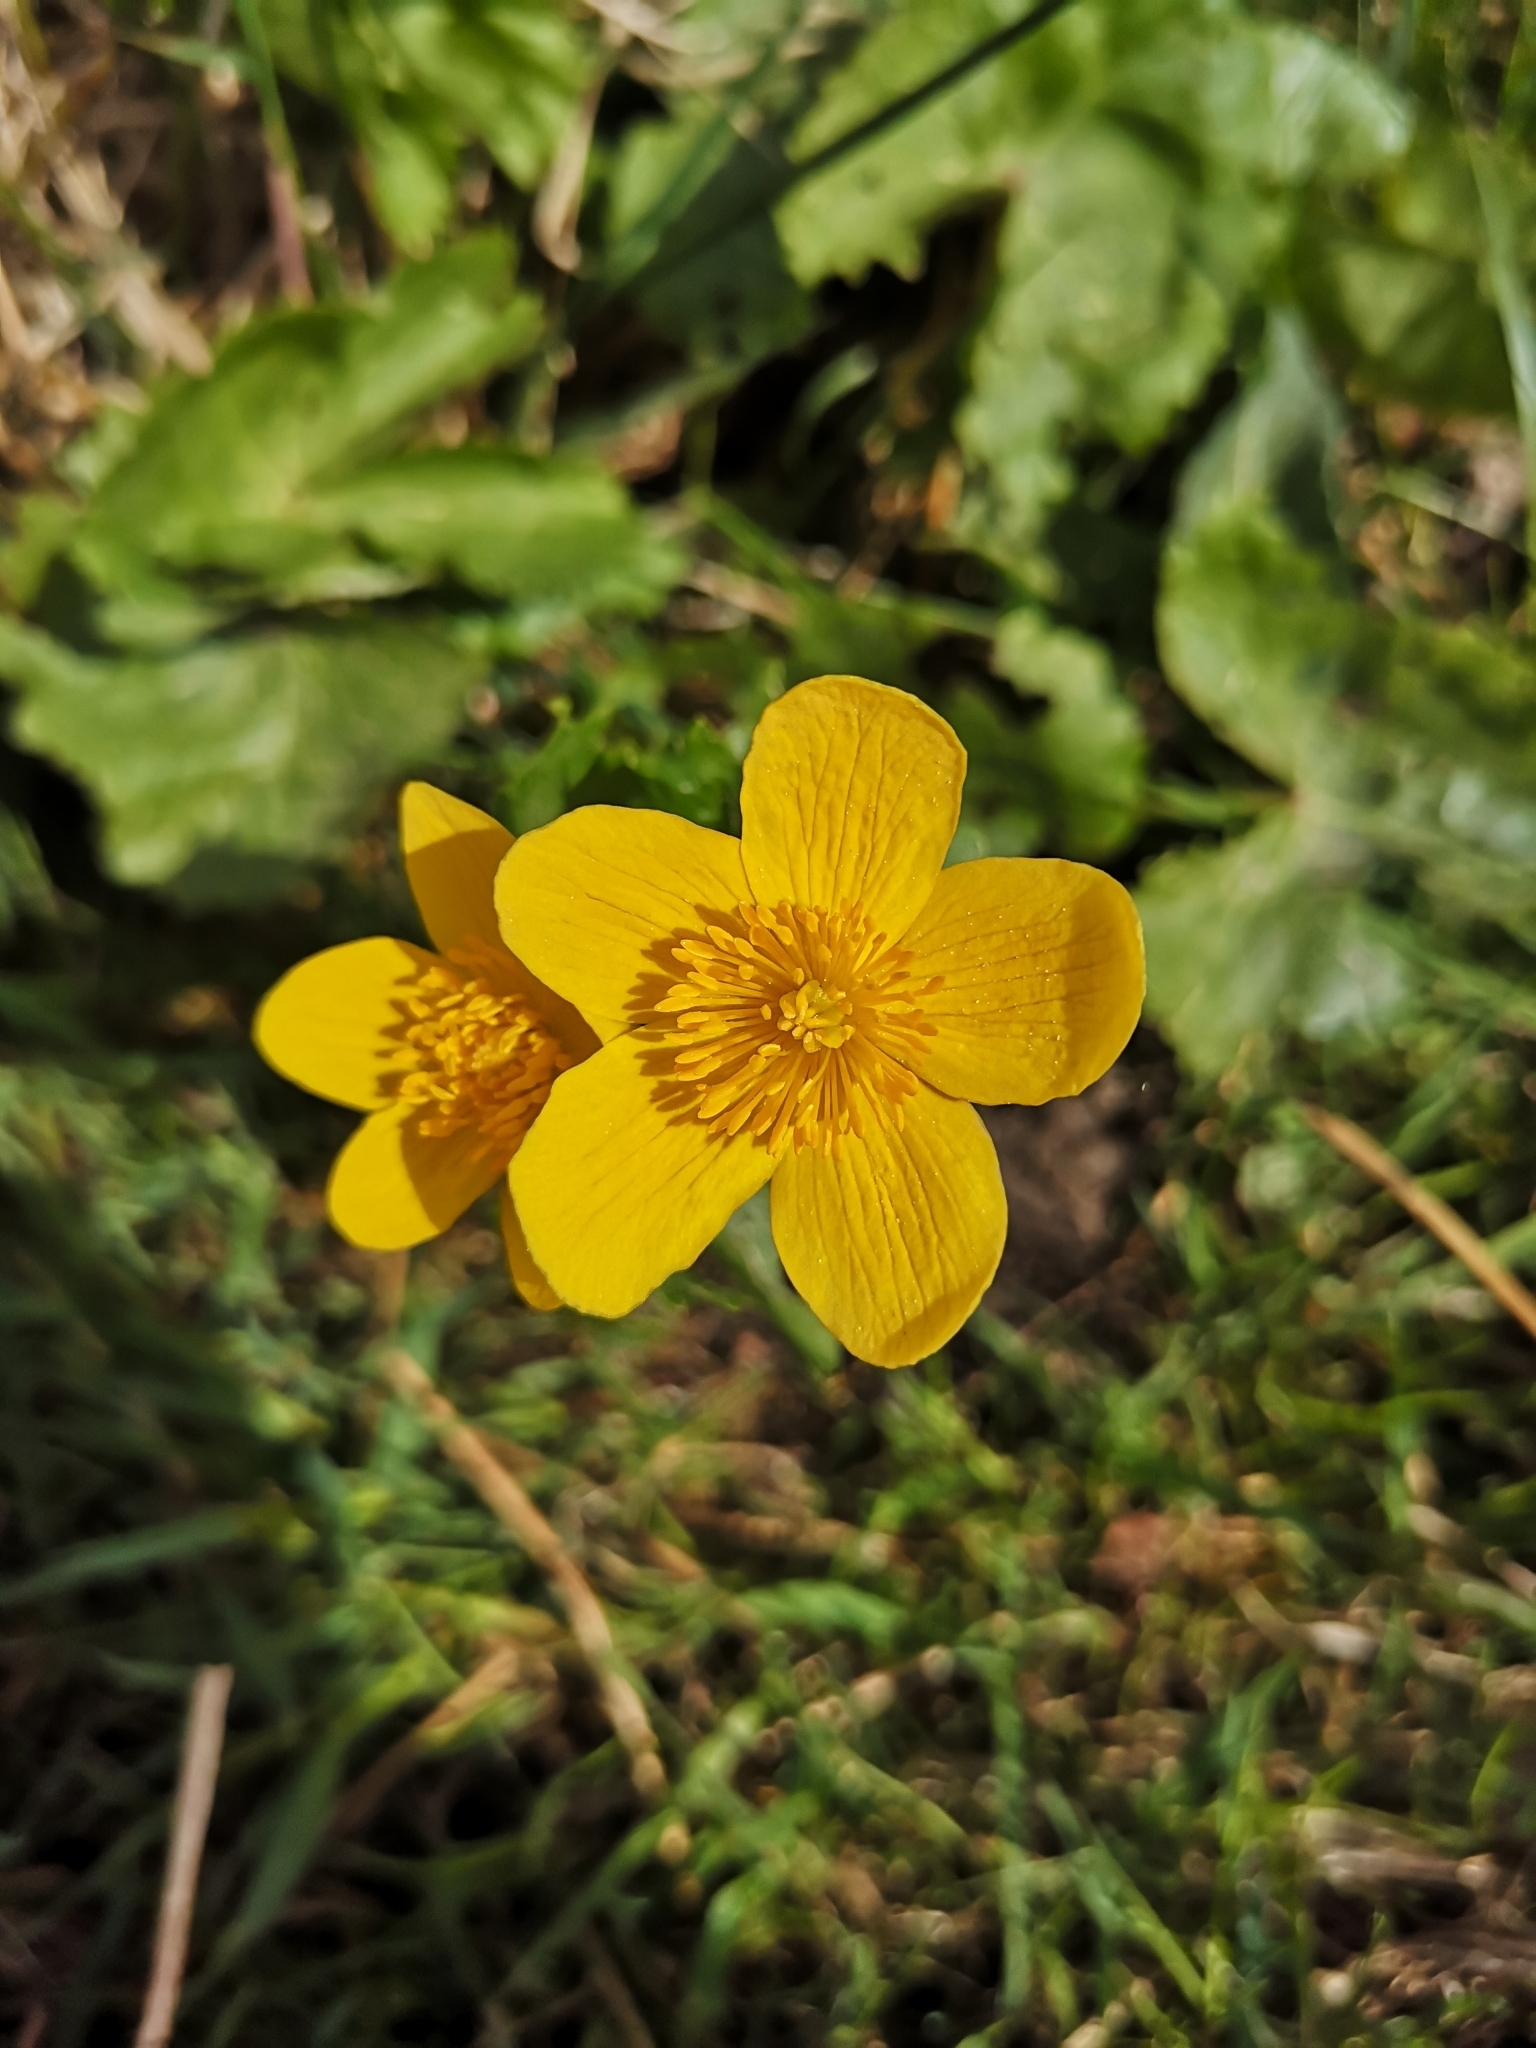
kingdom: Plantae
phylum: Tracheophyta
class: Magnoliopsida
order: Ranunculales
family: Ranunculaceae
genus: Caltha
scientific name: Caltha palustris
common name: Marsh marigold
